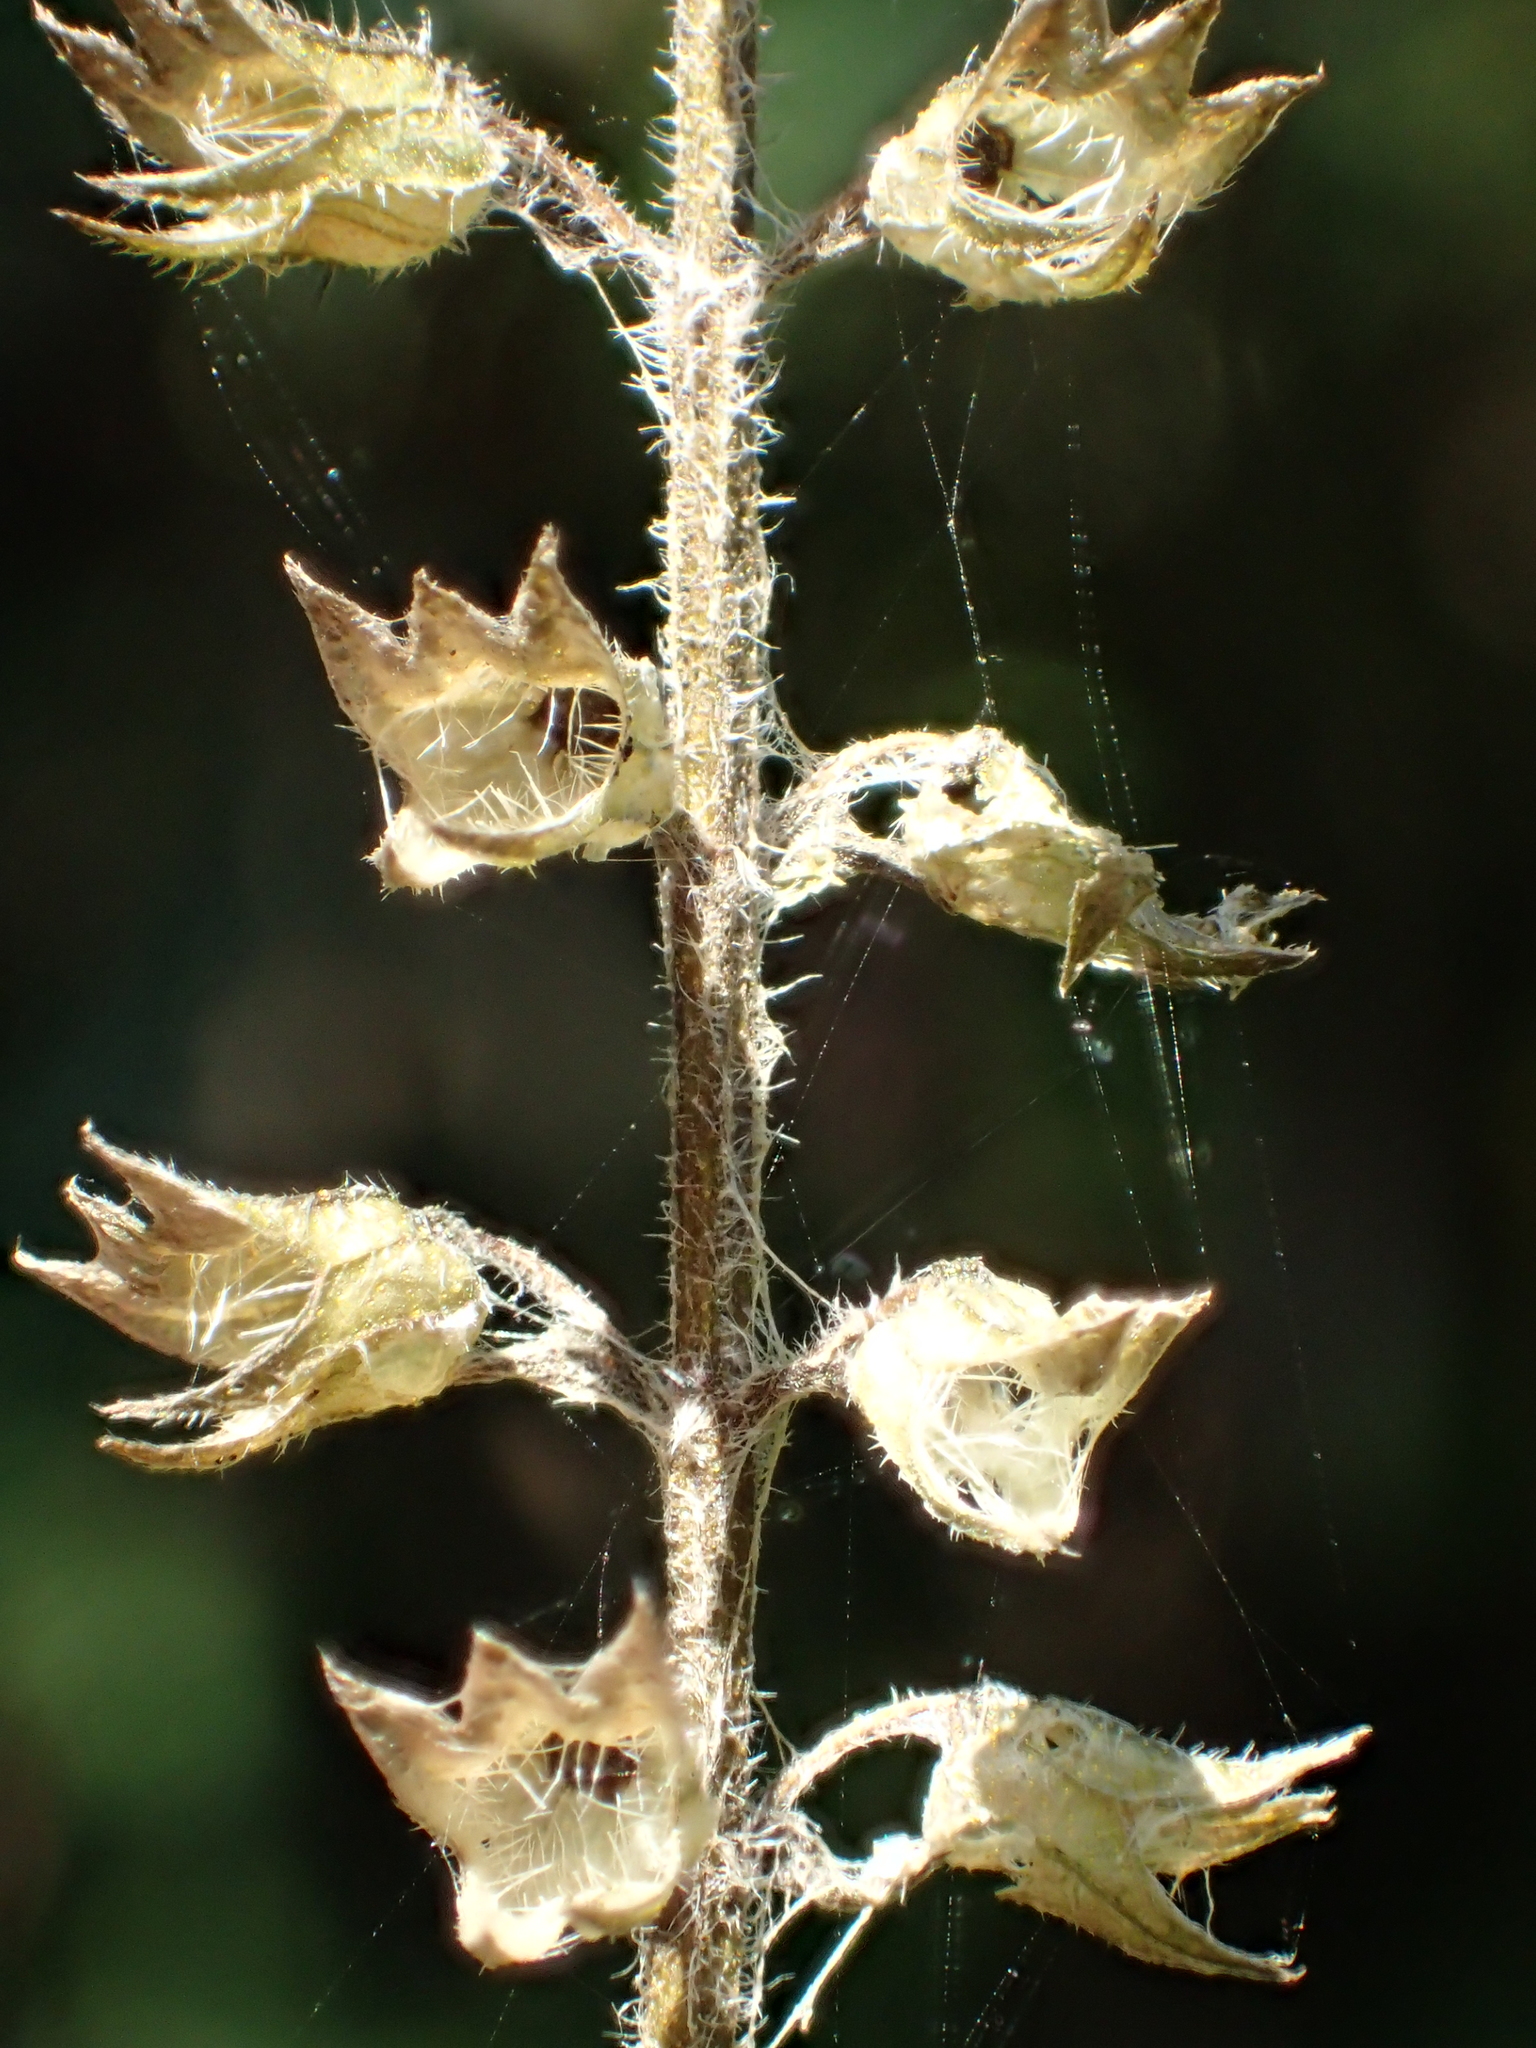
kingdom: Plantae
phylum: Tracheophyta
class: Magnoliopsida
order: Lamiales
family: Lamiaceae
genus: Mosla
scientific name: Mosla scabra
